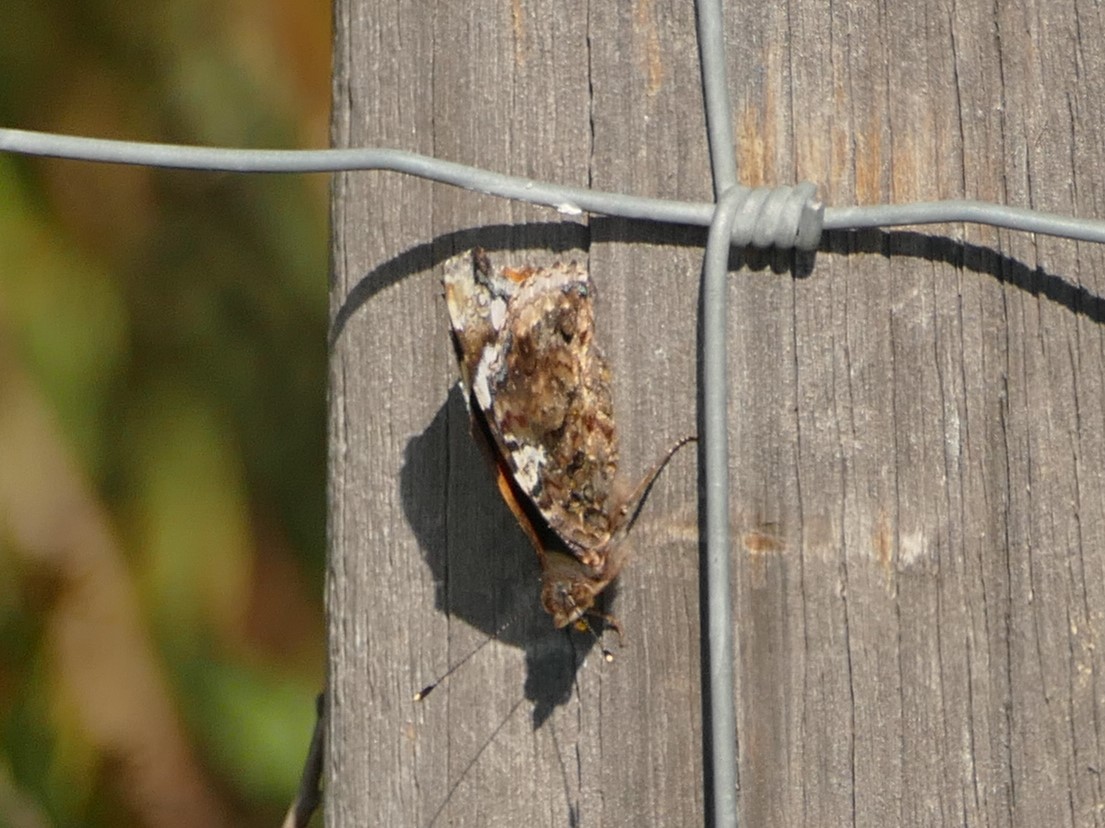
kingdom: Animalia
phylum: Arthropoda
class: Insecta
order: Lepidoptera
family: Nymphalidae
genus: Vanessa
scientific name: Vanessa atalanta
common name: Red admiral
